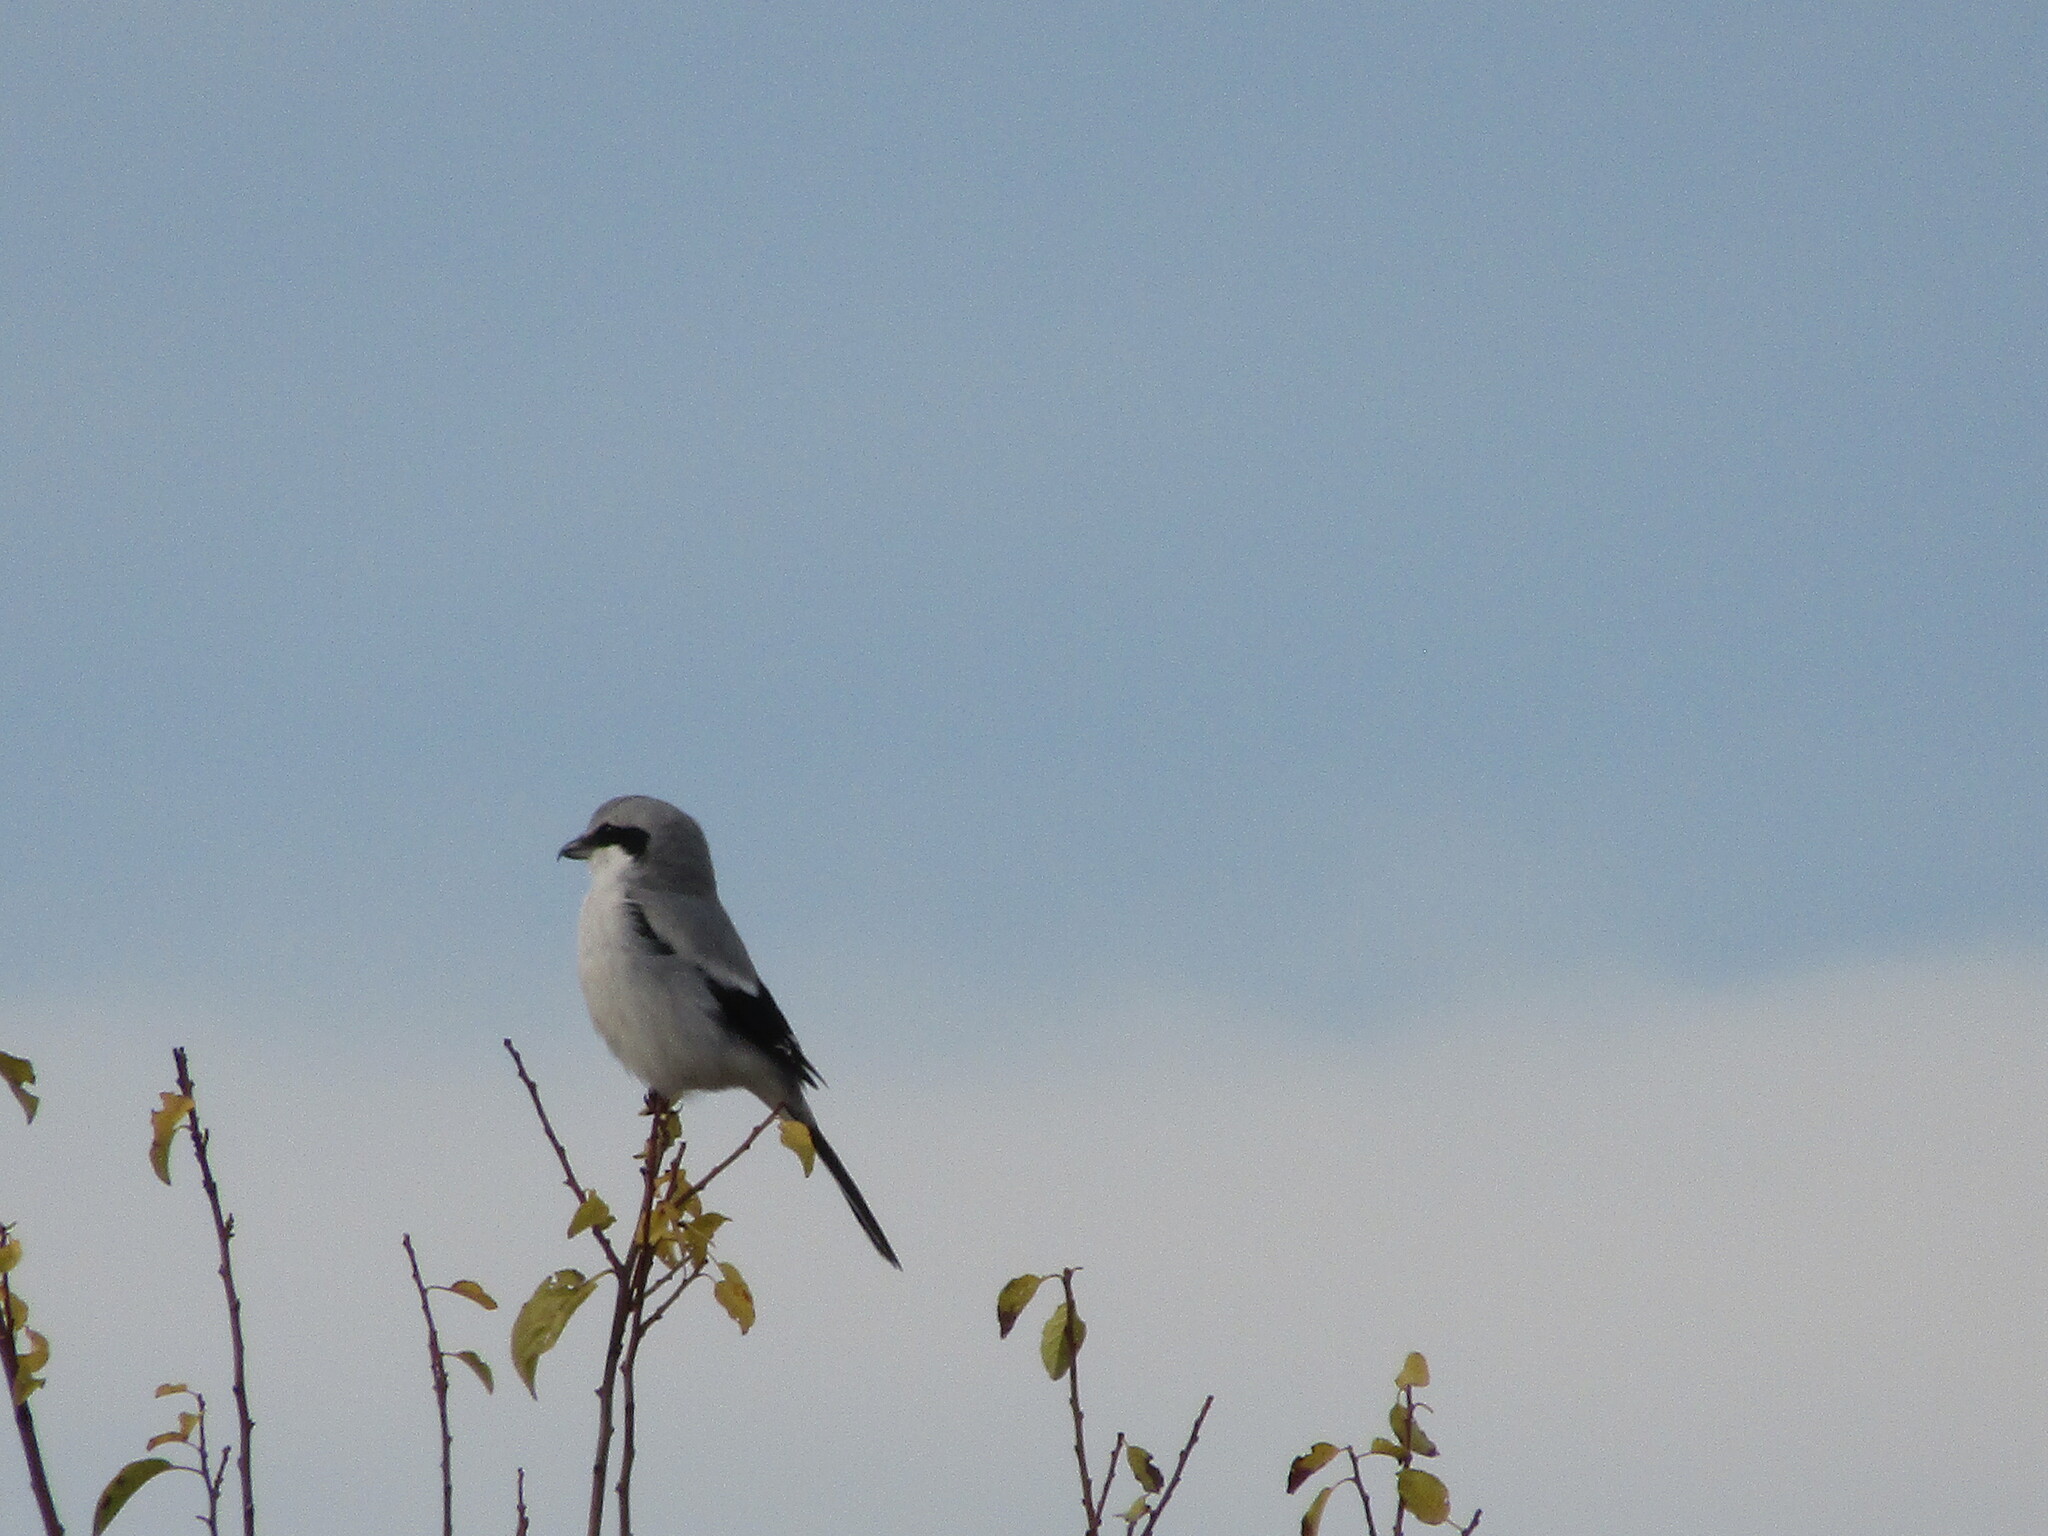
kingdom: Animalia
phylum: Chordata
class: Aves
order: Passeriformes
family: Laniidae
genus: Lanius
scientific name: Lanius excubitor
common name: Great grey shrike
